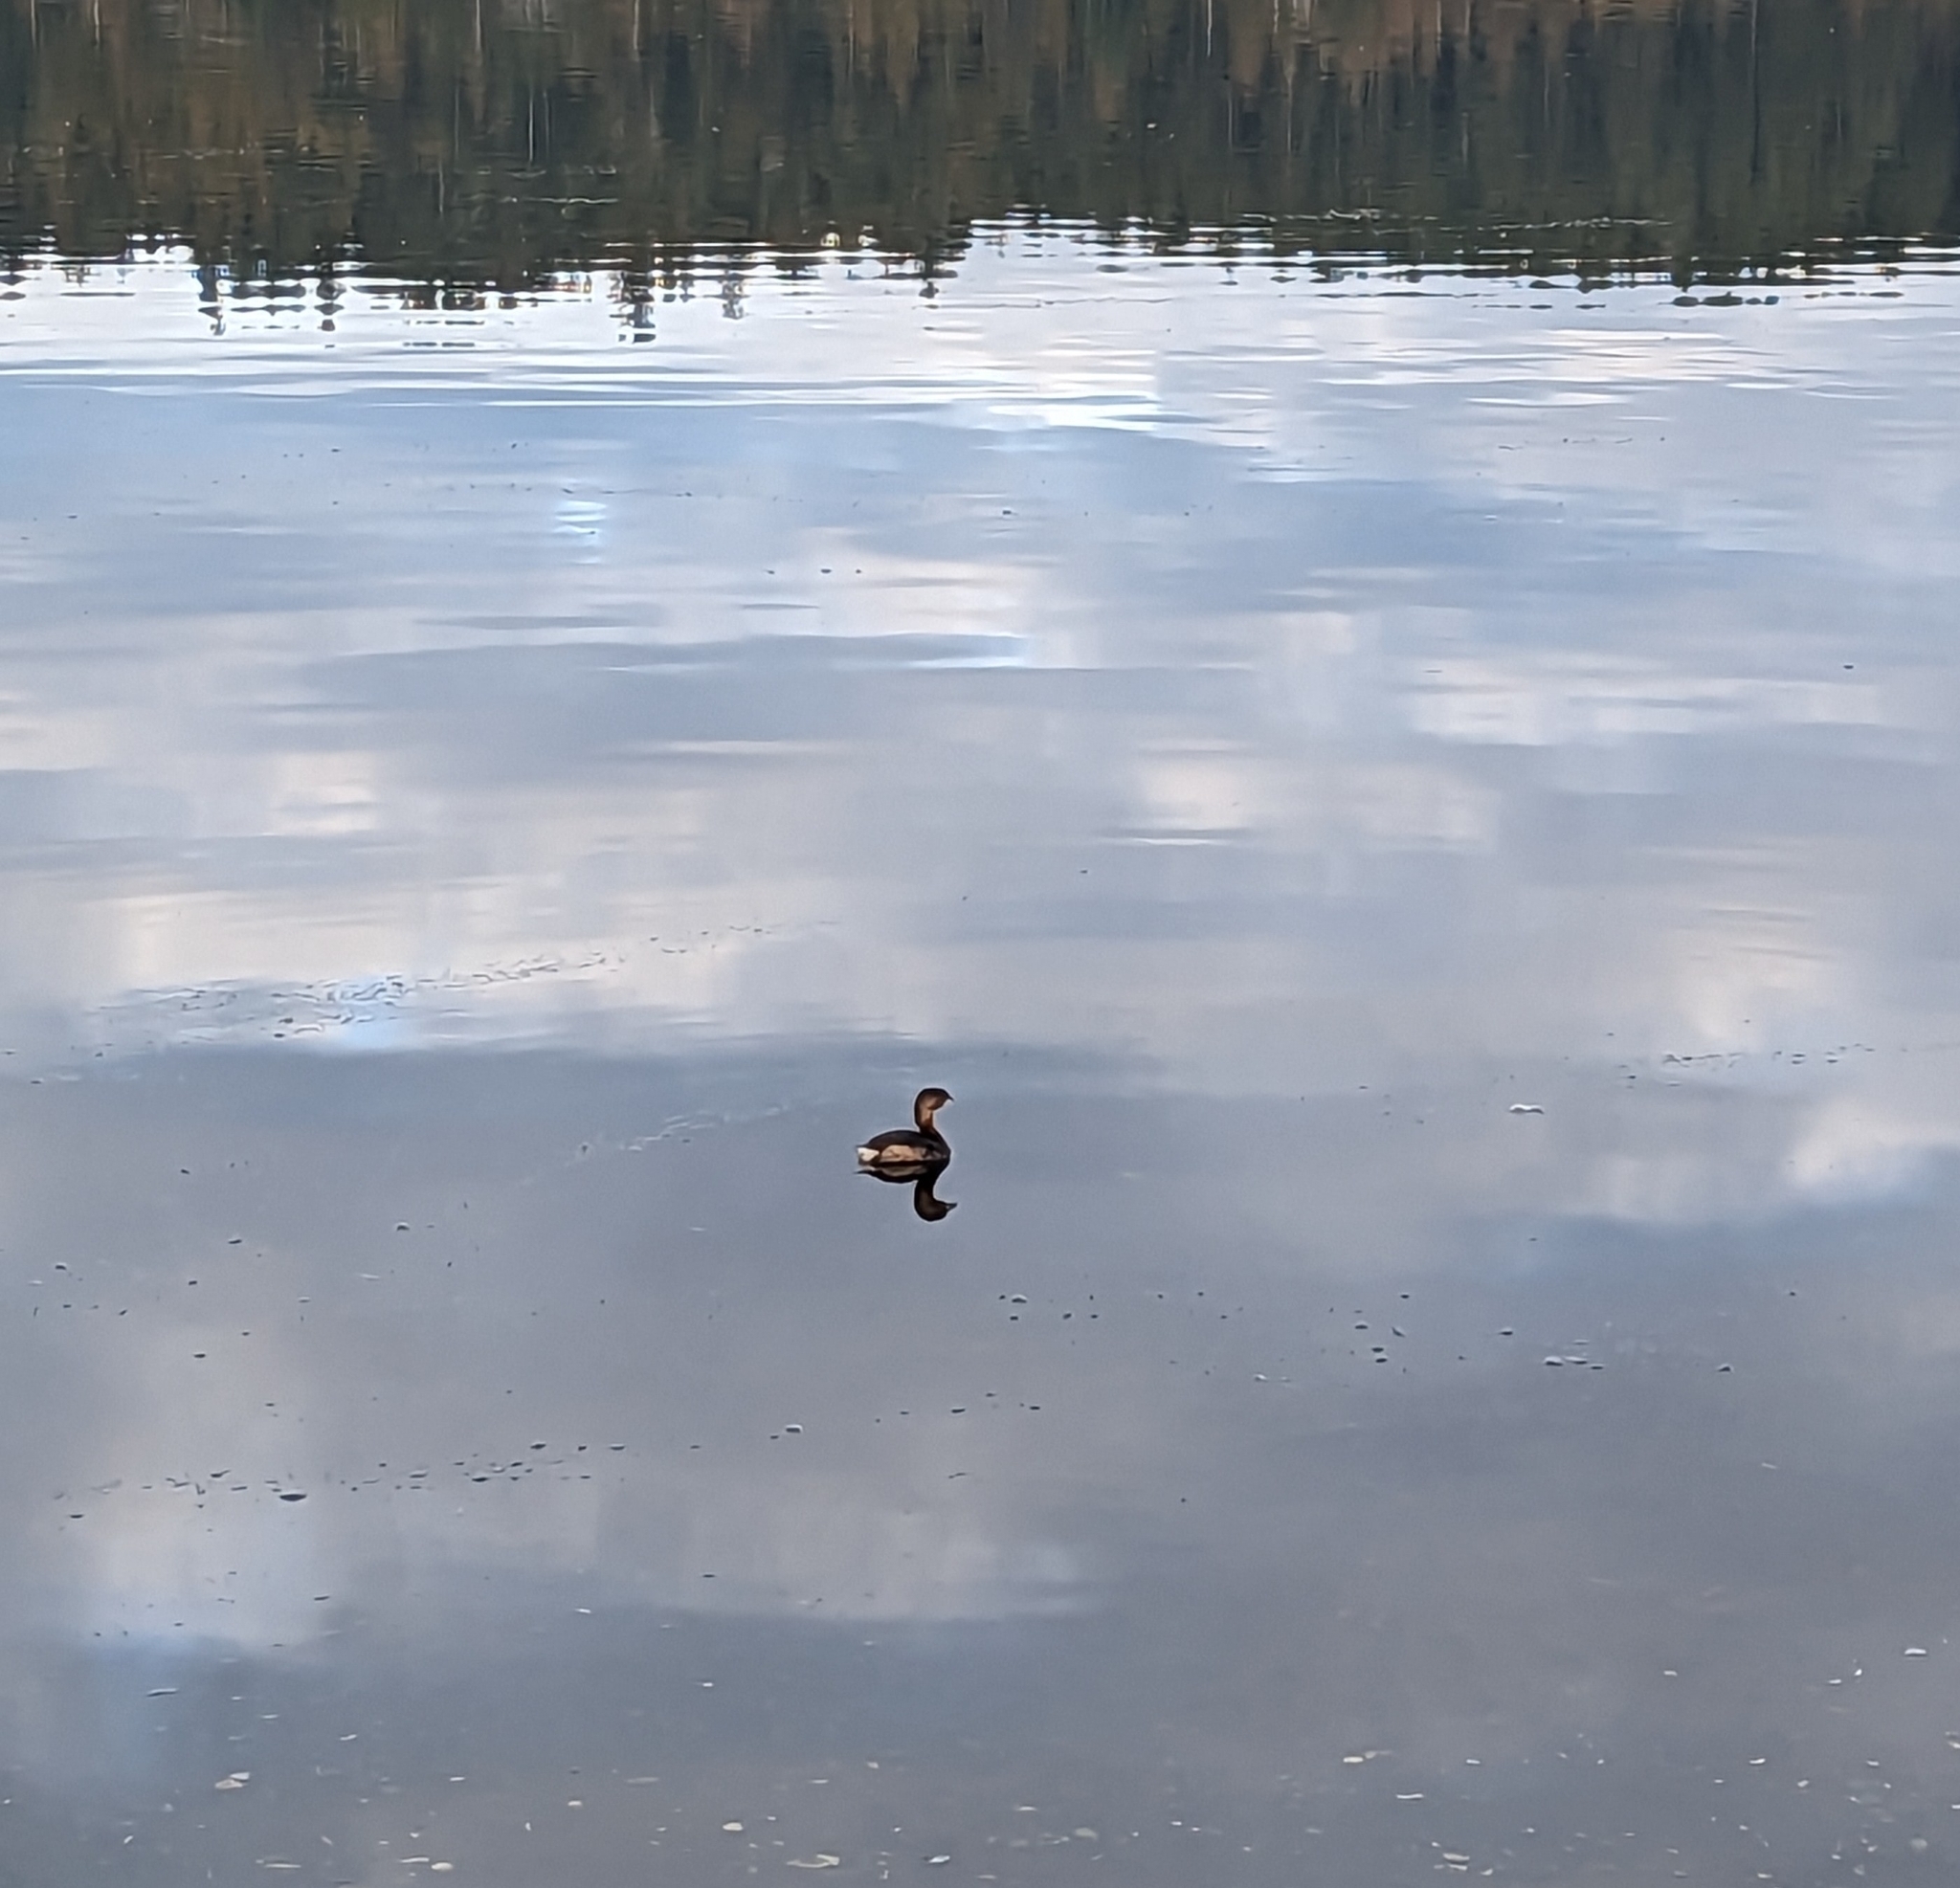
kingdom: Animalia
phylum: Chordata
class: Aves
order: Podicipediformes
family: Podicipedidae
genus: Podilymbus
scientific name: Podilymbus podiceps
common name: Pied-billed grebe
